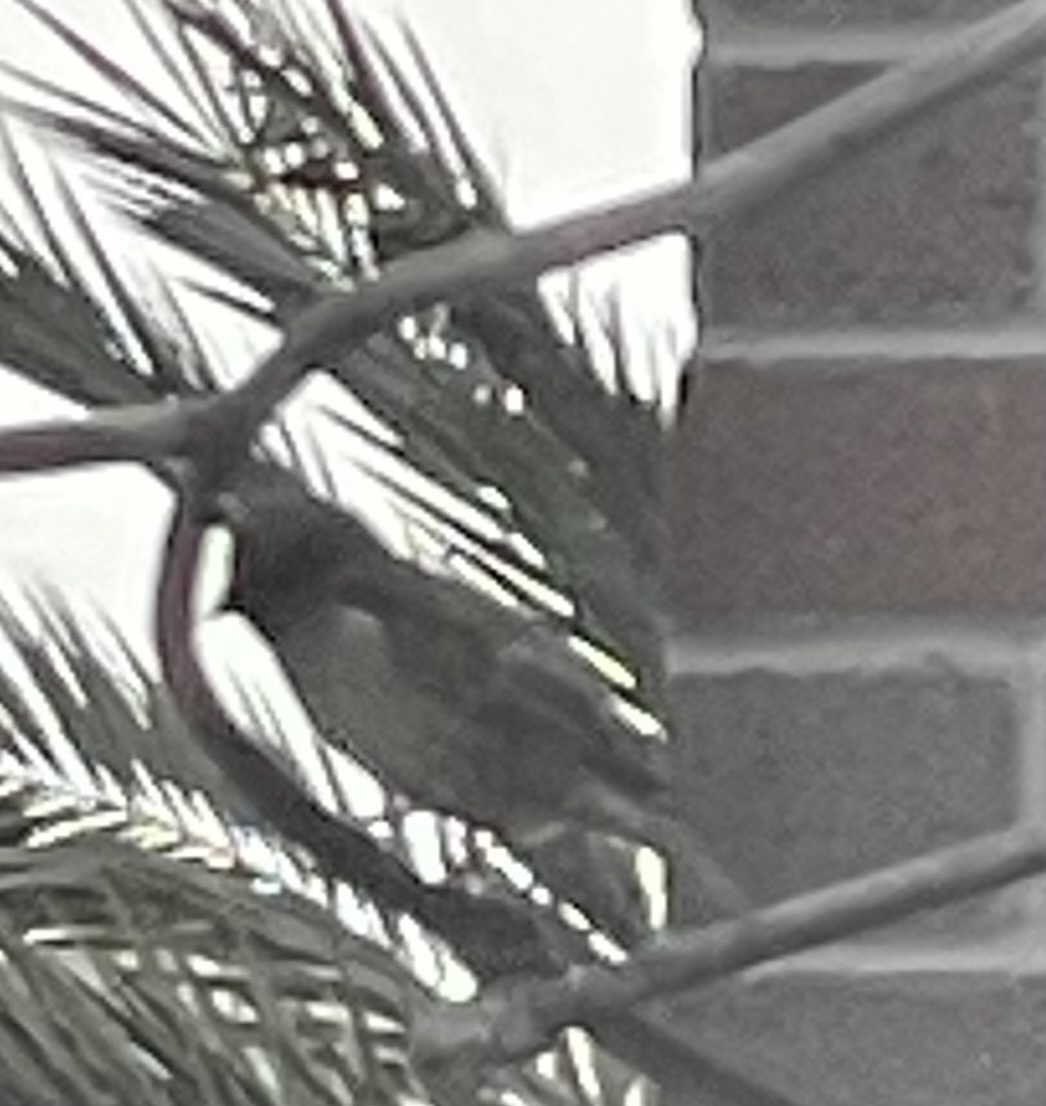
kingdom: Animalia
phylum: Chordata
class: Aves
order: Passeriformes
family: Passeridae
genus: Passer
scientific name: Passer domesticus
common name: House sparrow
